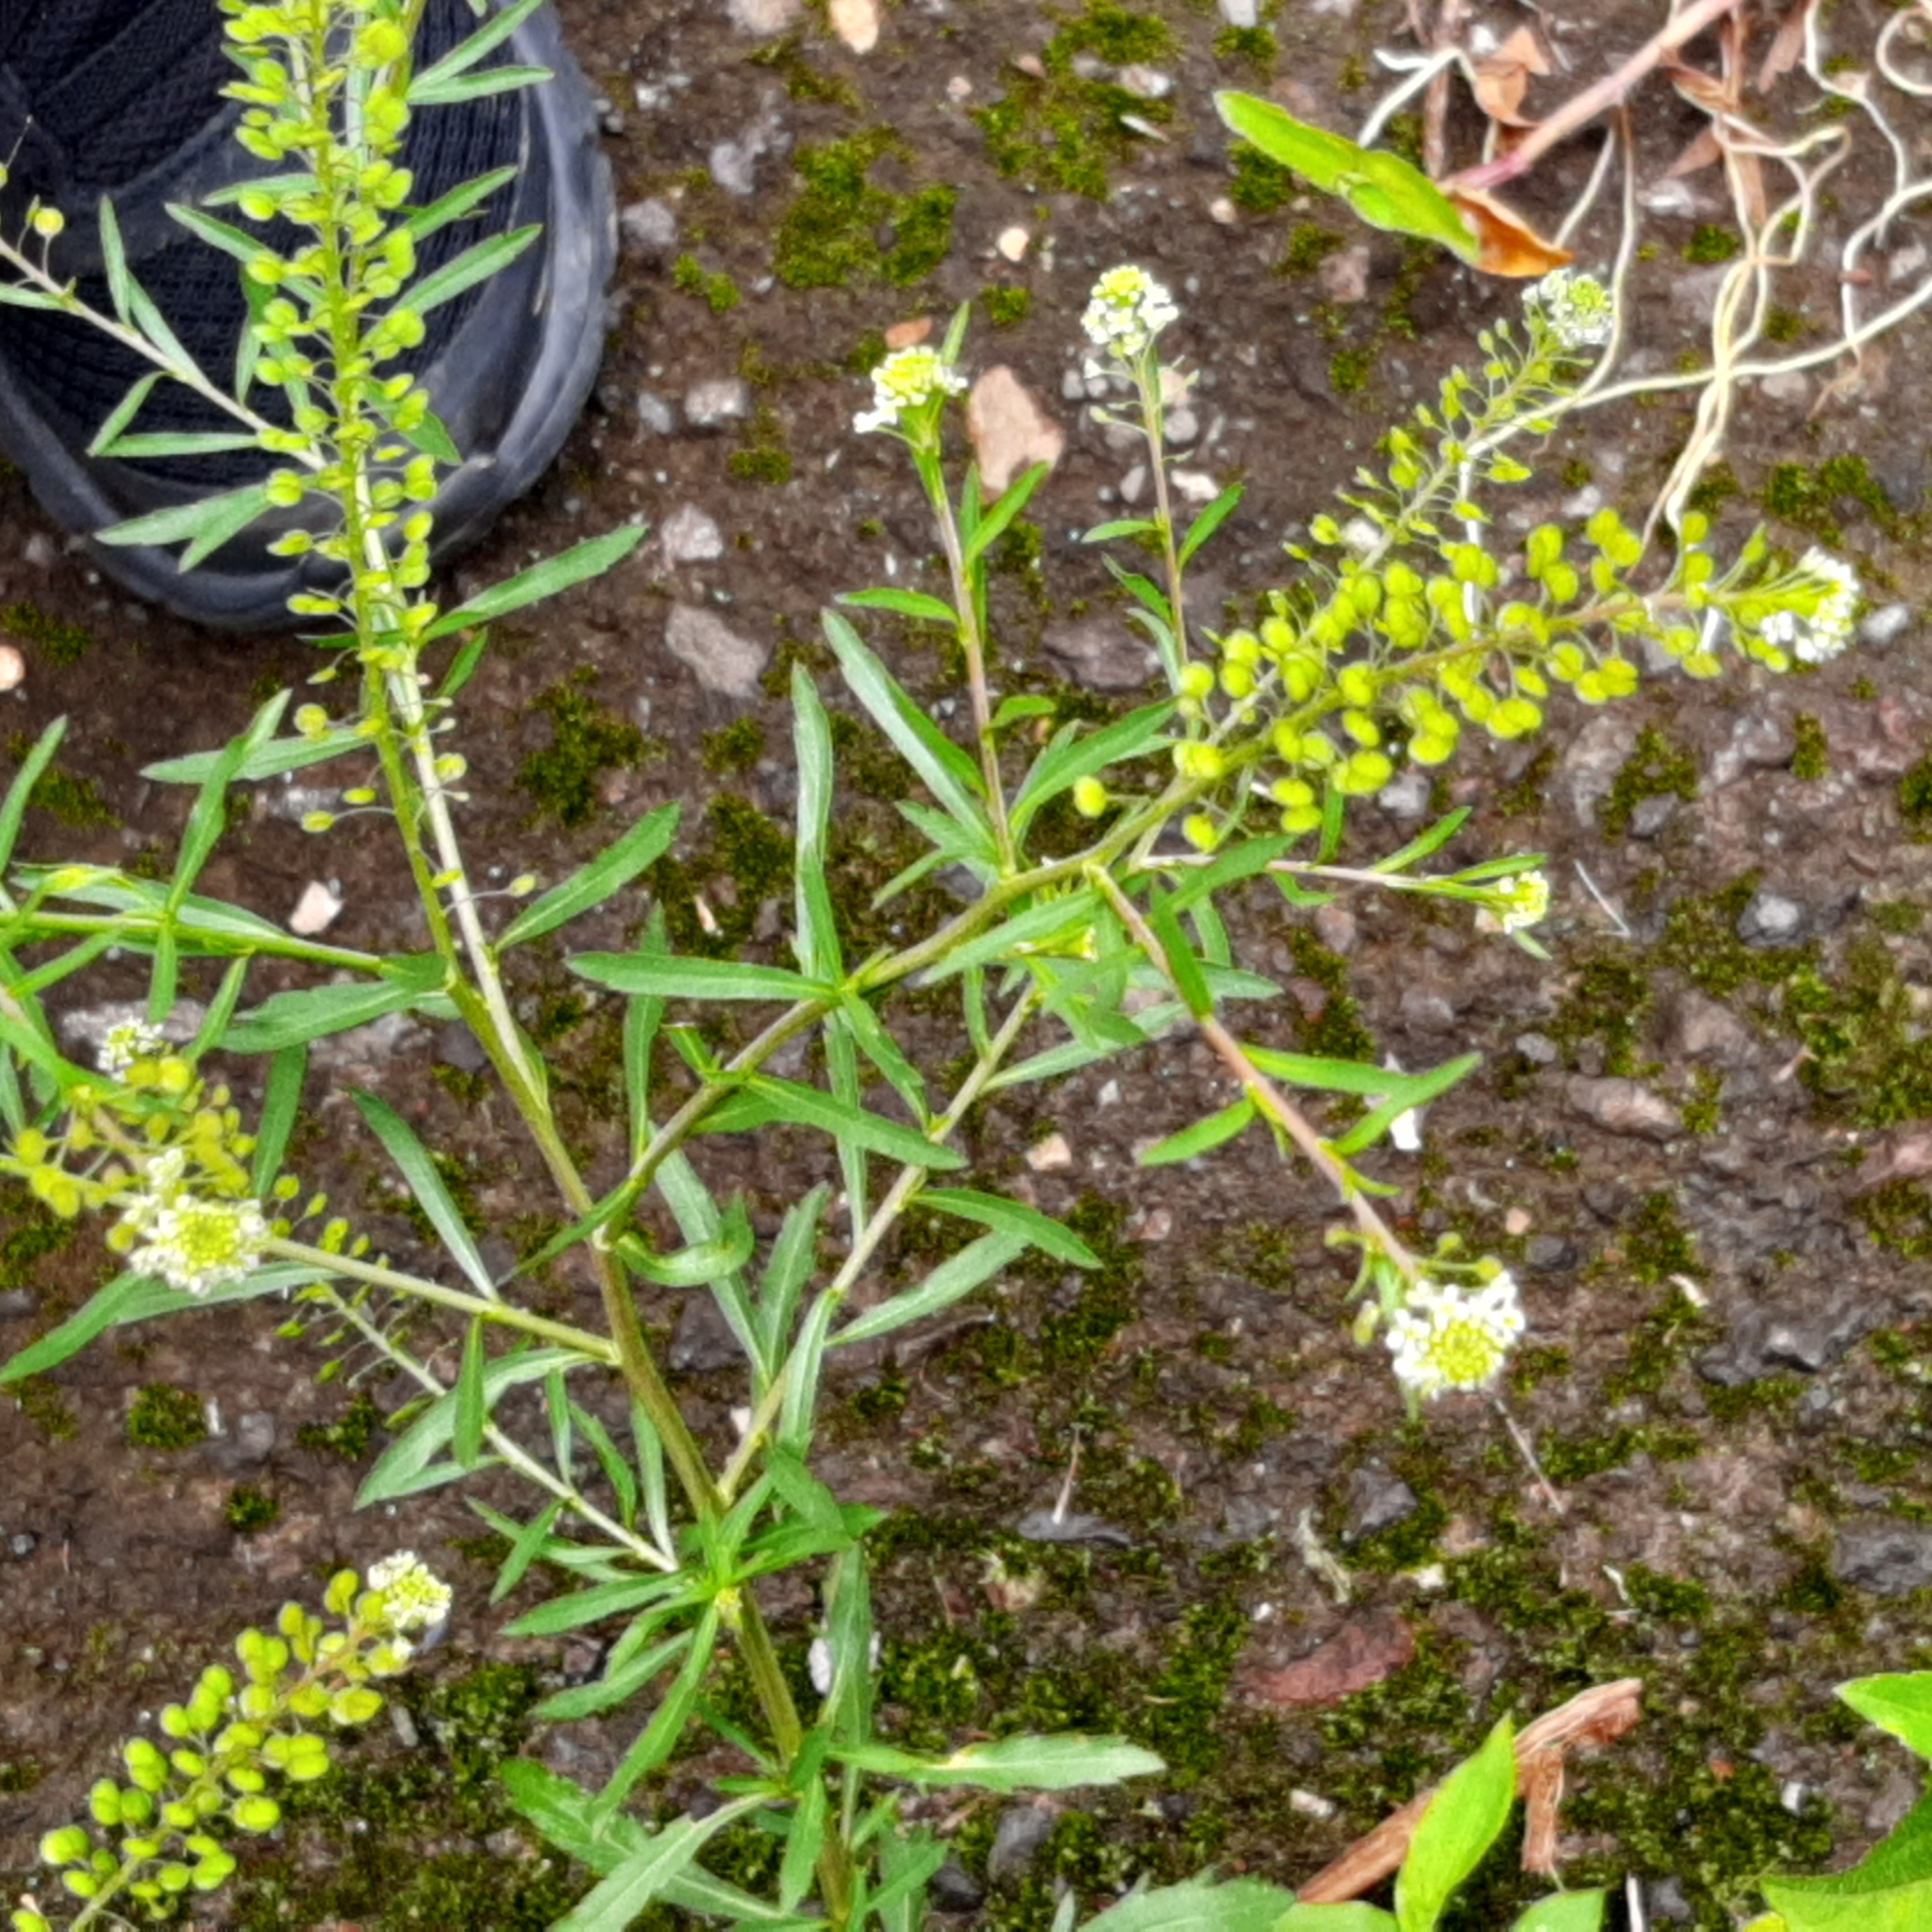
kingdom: Plantae
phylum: Tracheophyta
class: Magnoliopsida
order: Brassicales
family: Brassicaceae
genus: Lepidium
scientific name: Lepidium virginicum
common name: Least pepperwort
